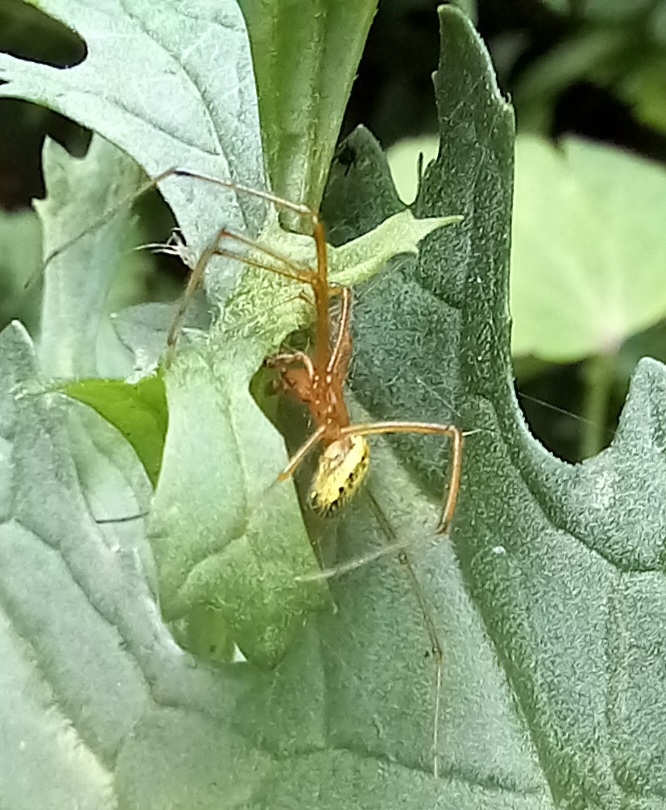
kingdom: Animalia
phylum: Arthropoda
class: Arachnida
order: Araneae
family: Theridiidae
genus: Enoplognatha
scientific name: Enoplognatha ovata
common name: Common candy-striped spider
